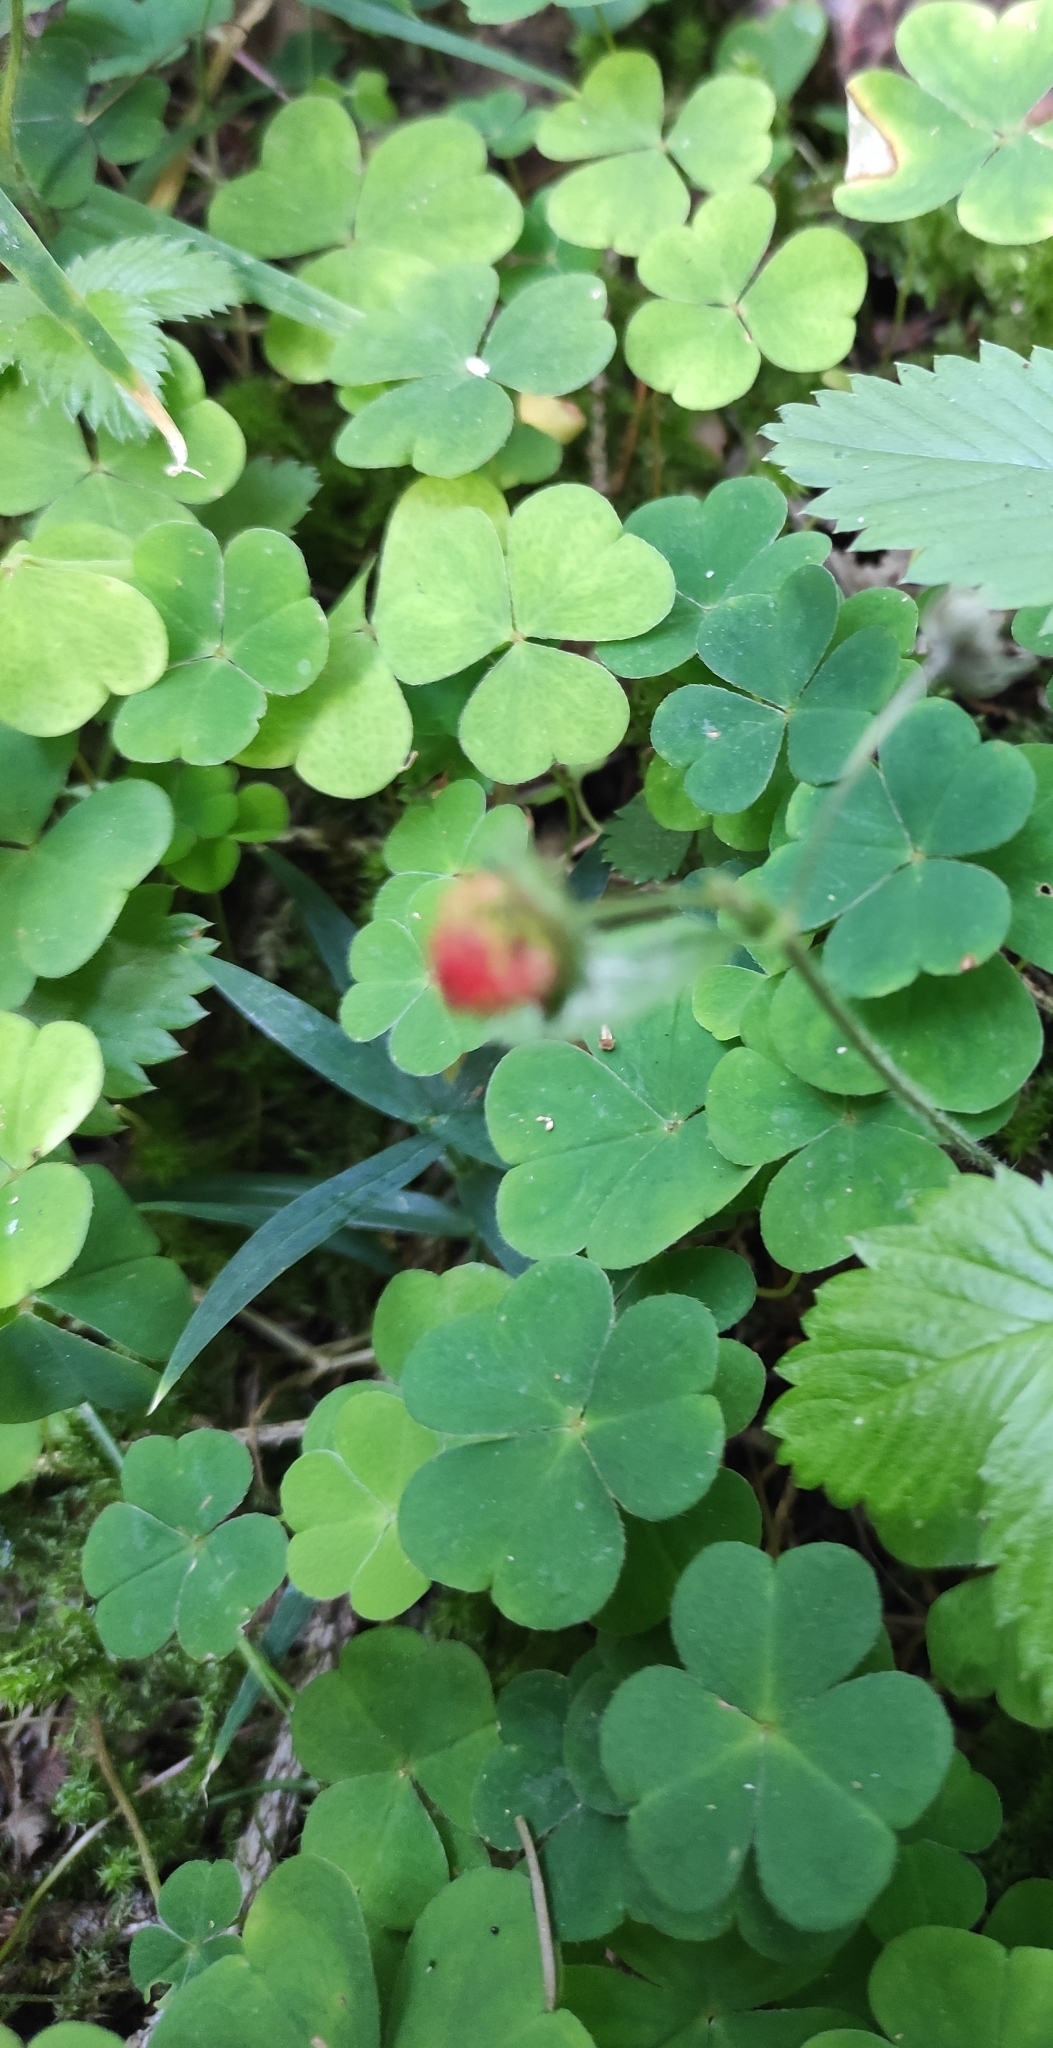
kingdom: Plantae
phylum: Tracheophyta
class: Magnoliopsida
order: Oxalidales
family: Oxalidaceae
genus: Oxalis
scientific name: Oxalis acetosella
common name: Wood-sorrel
